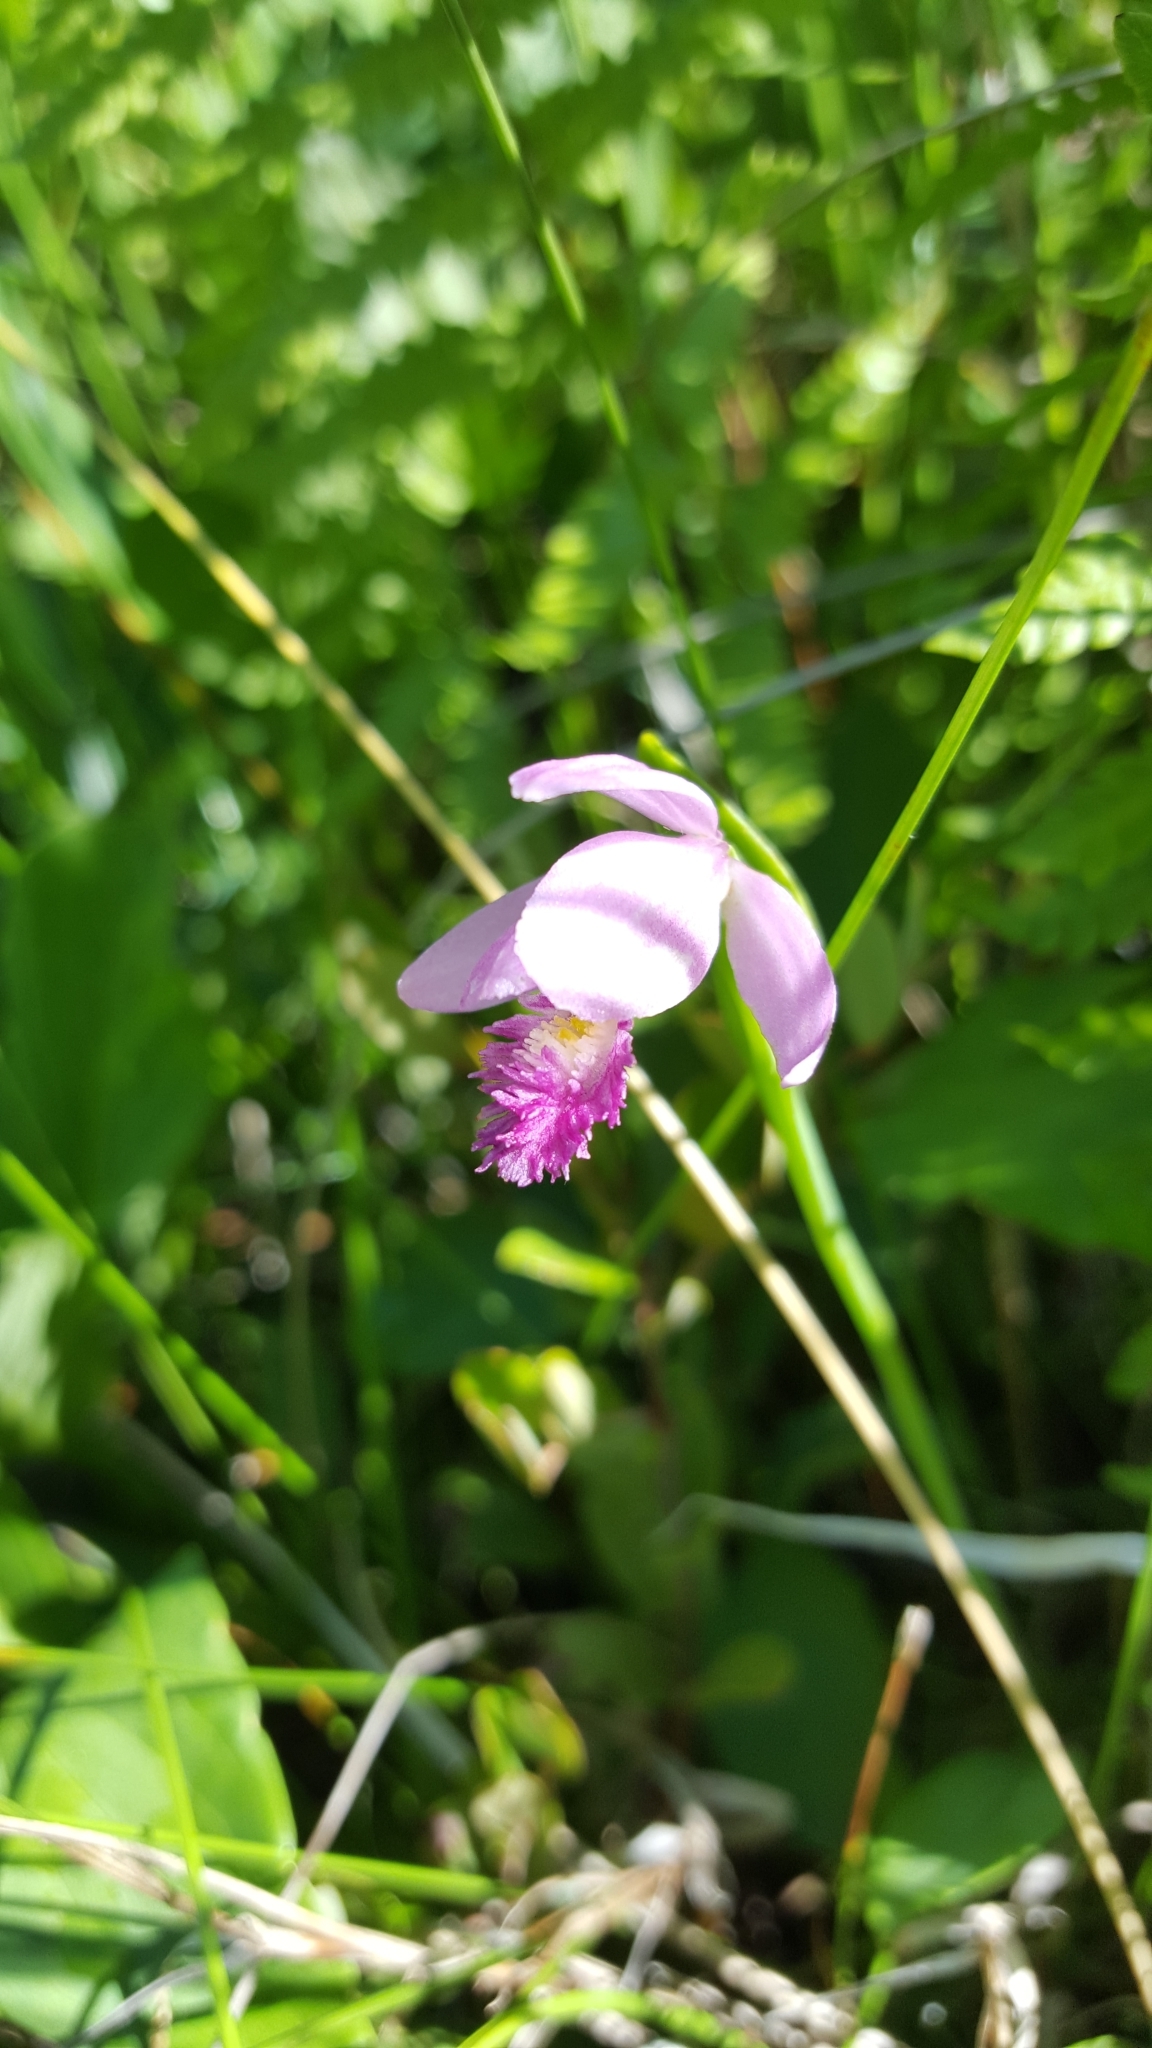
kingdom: Plantae
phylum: Tracheophyta
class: Liliopsida
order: Asparagales
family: Orchidaceae
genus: Pogonia
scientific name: Pogonia ophioglossoides
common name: Rose pogonia
